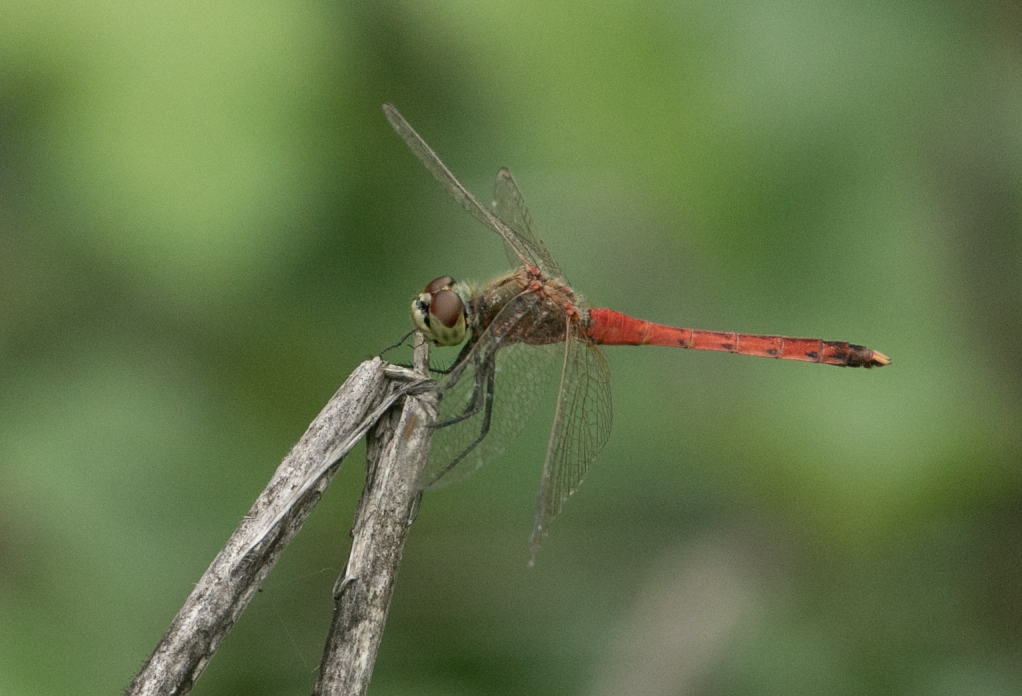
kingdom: Animalia
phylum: Arthropoda
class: Insecta
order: Odonata
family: Libellulidae
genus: Sympetrum
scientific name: Sympetrum depressiusculum
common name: Spotted darter
